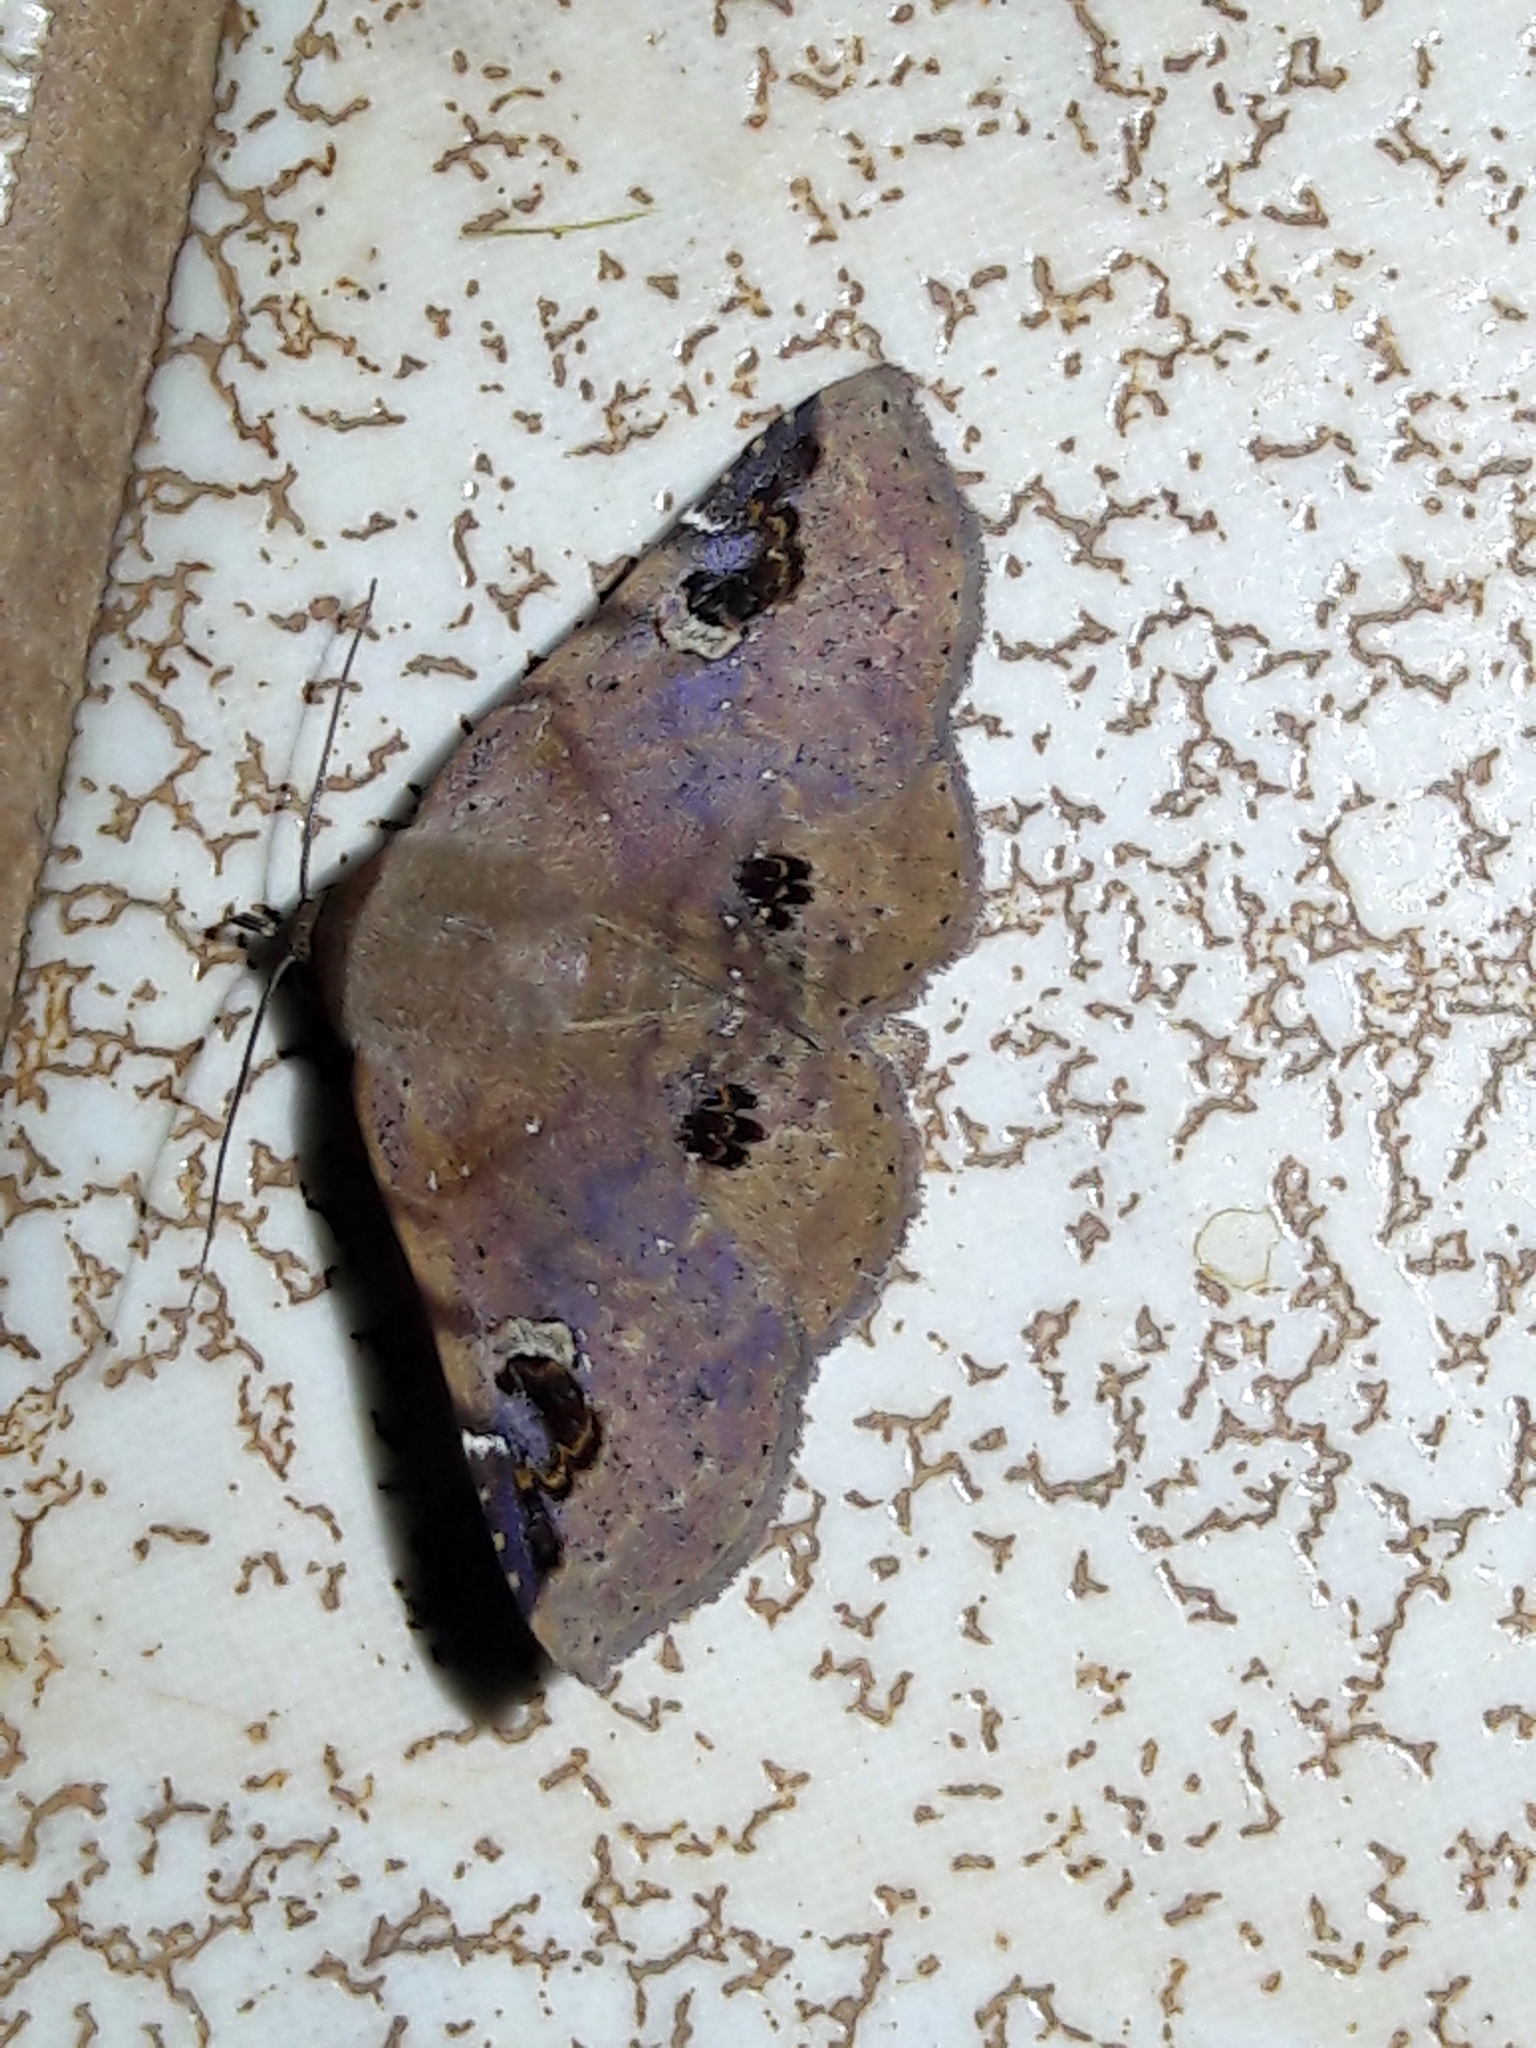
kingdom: Animalia
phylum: Arthropoda
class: Insecta
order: Lepidoptera
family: Erebidae
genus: Massala
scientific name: Massala abdara
